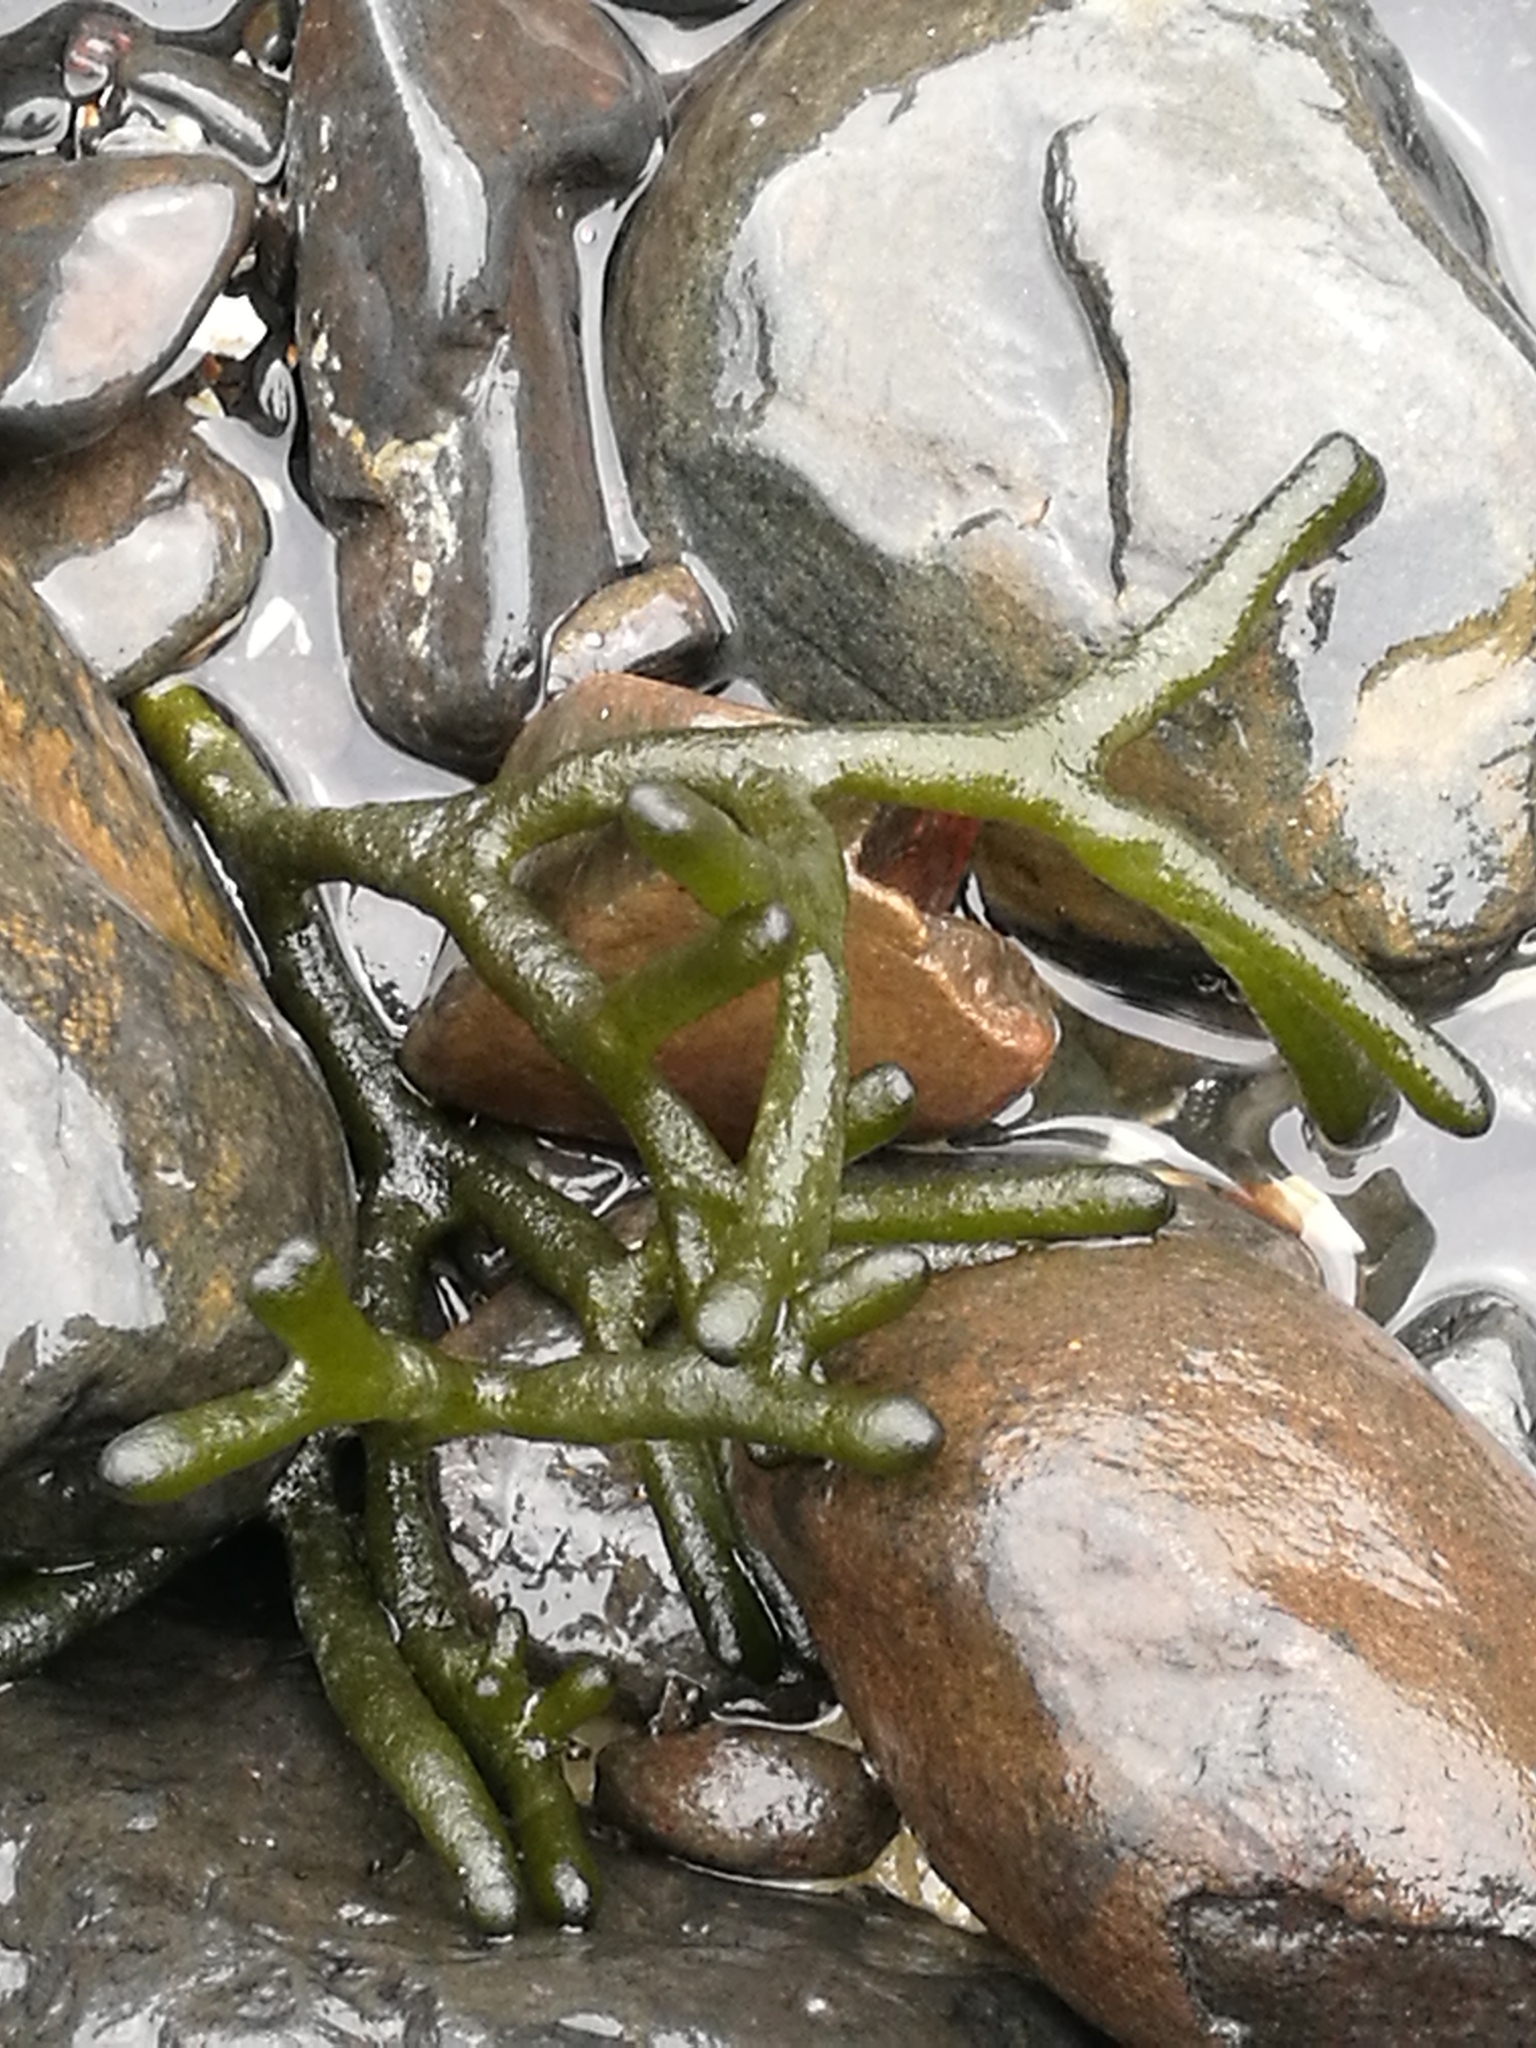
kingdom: Plantae
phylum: Chlorophyta
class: Ulvophyceae
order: Bryopsidales
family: Codiaceae
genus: Codium
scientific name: Codium fragile
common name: Dead man's fingers
